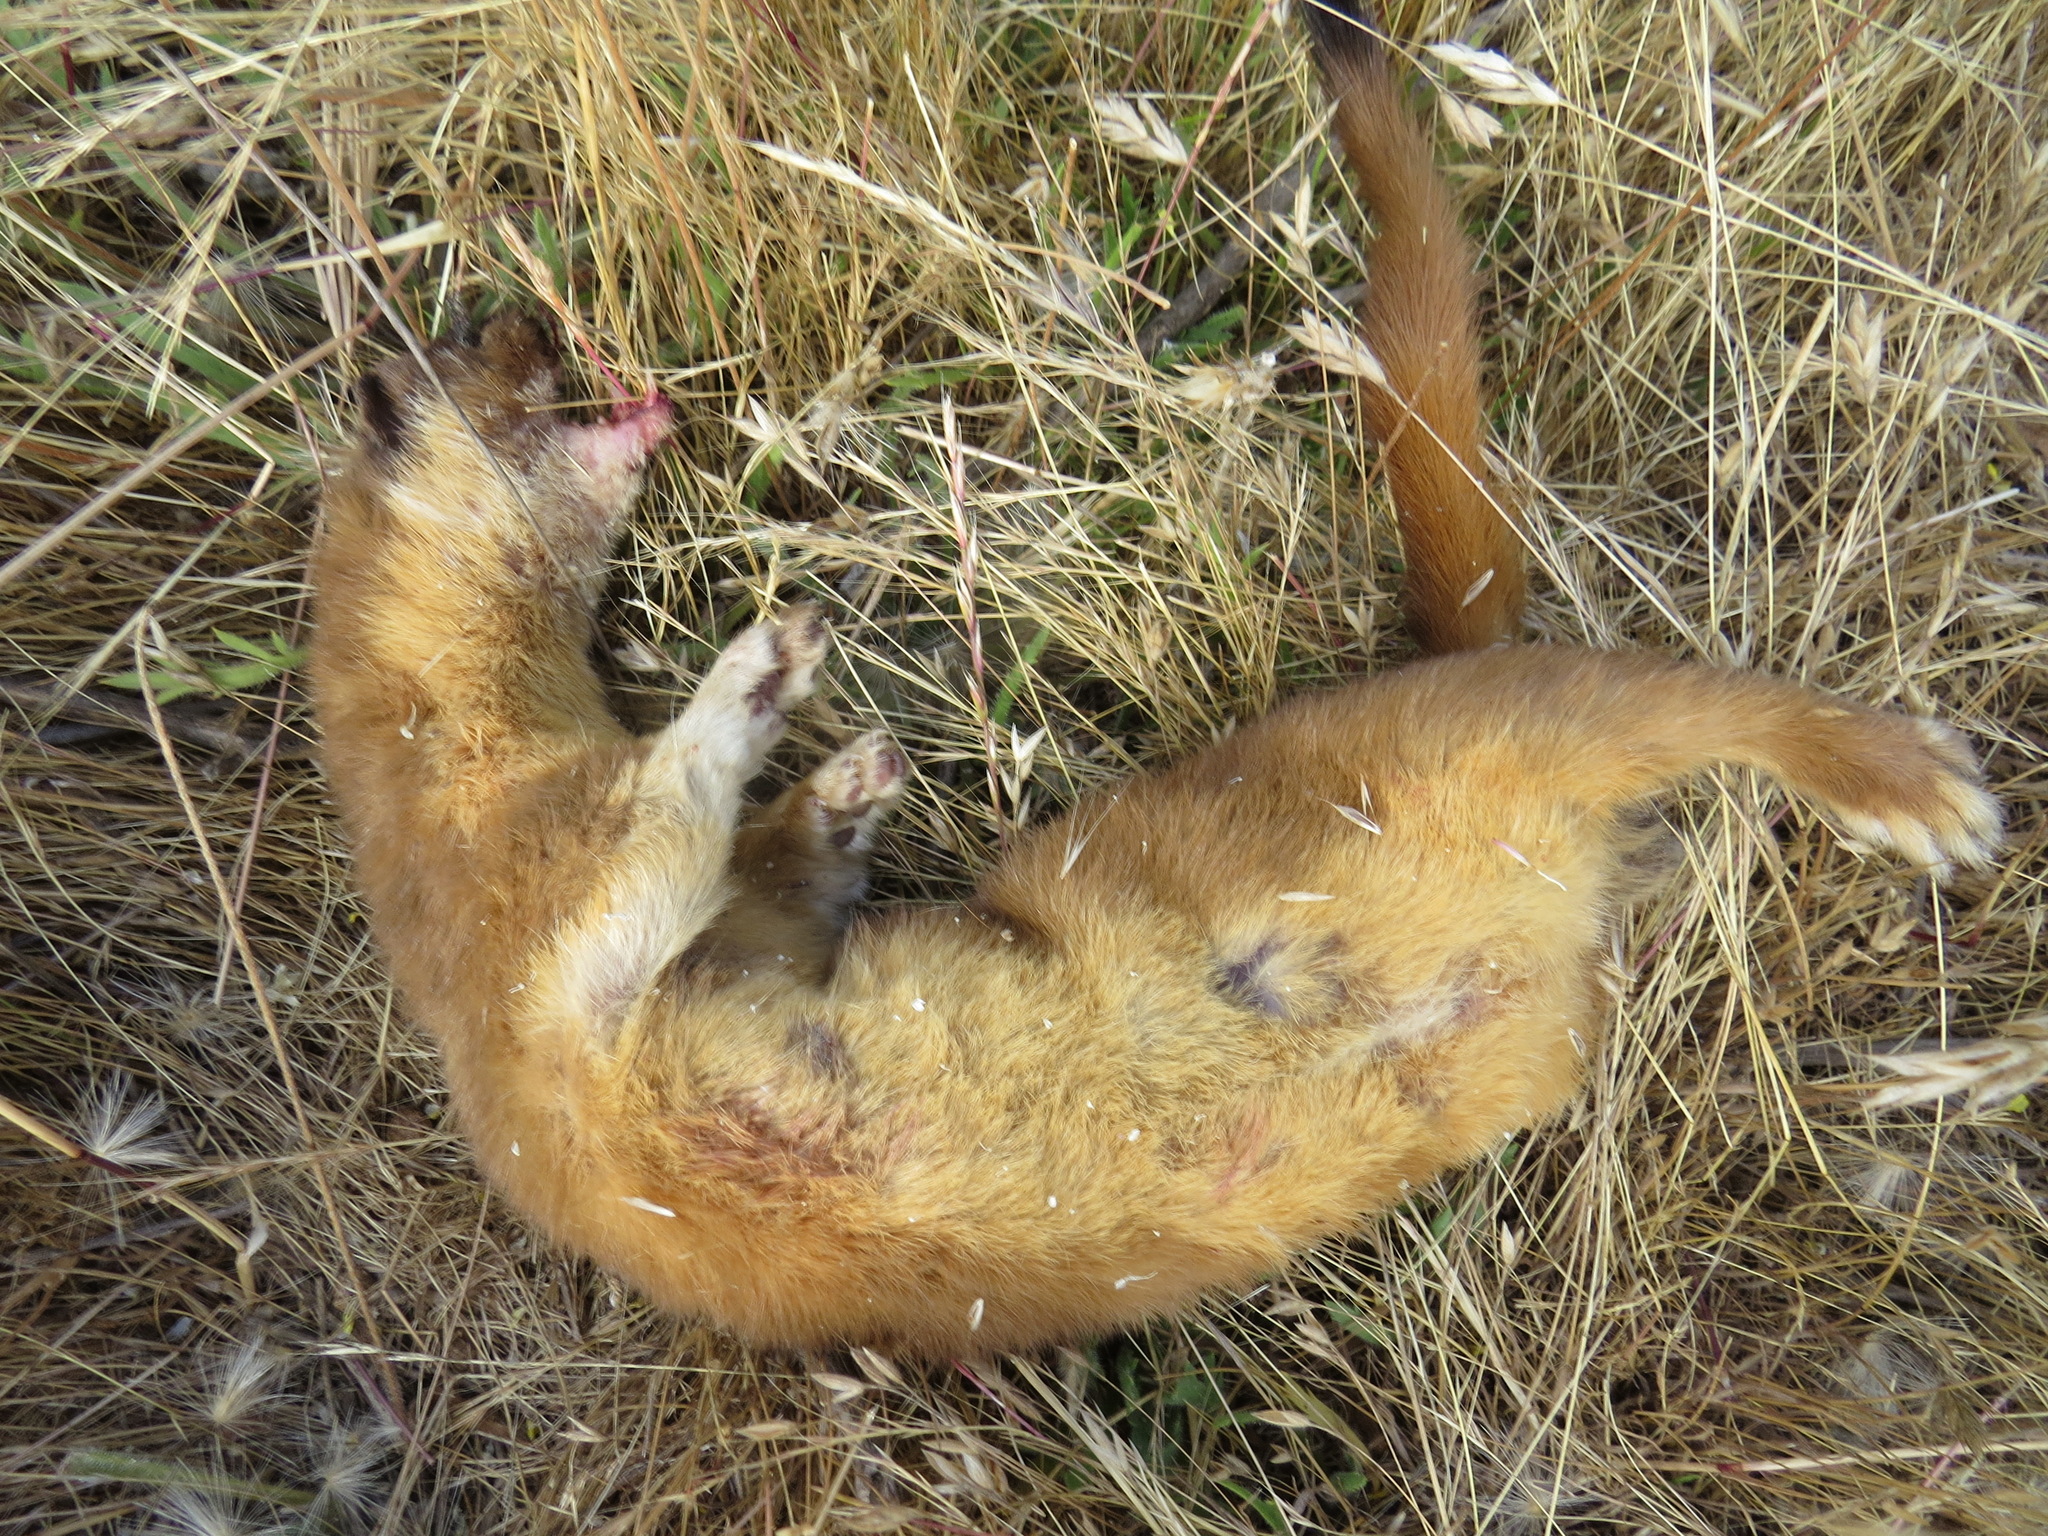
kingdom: Animalia
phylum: Chordata
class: Mammalia
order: Carnivora
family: Mustelidae
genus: Mustela
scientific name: Mustela
